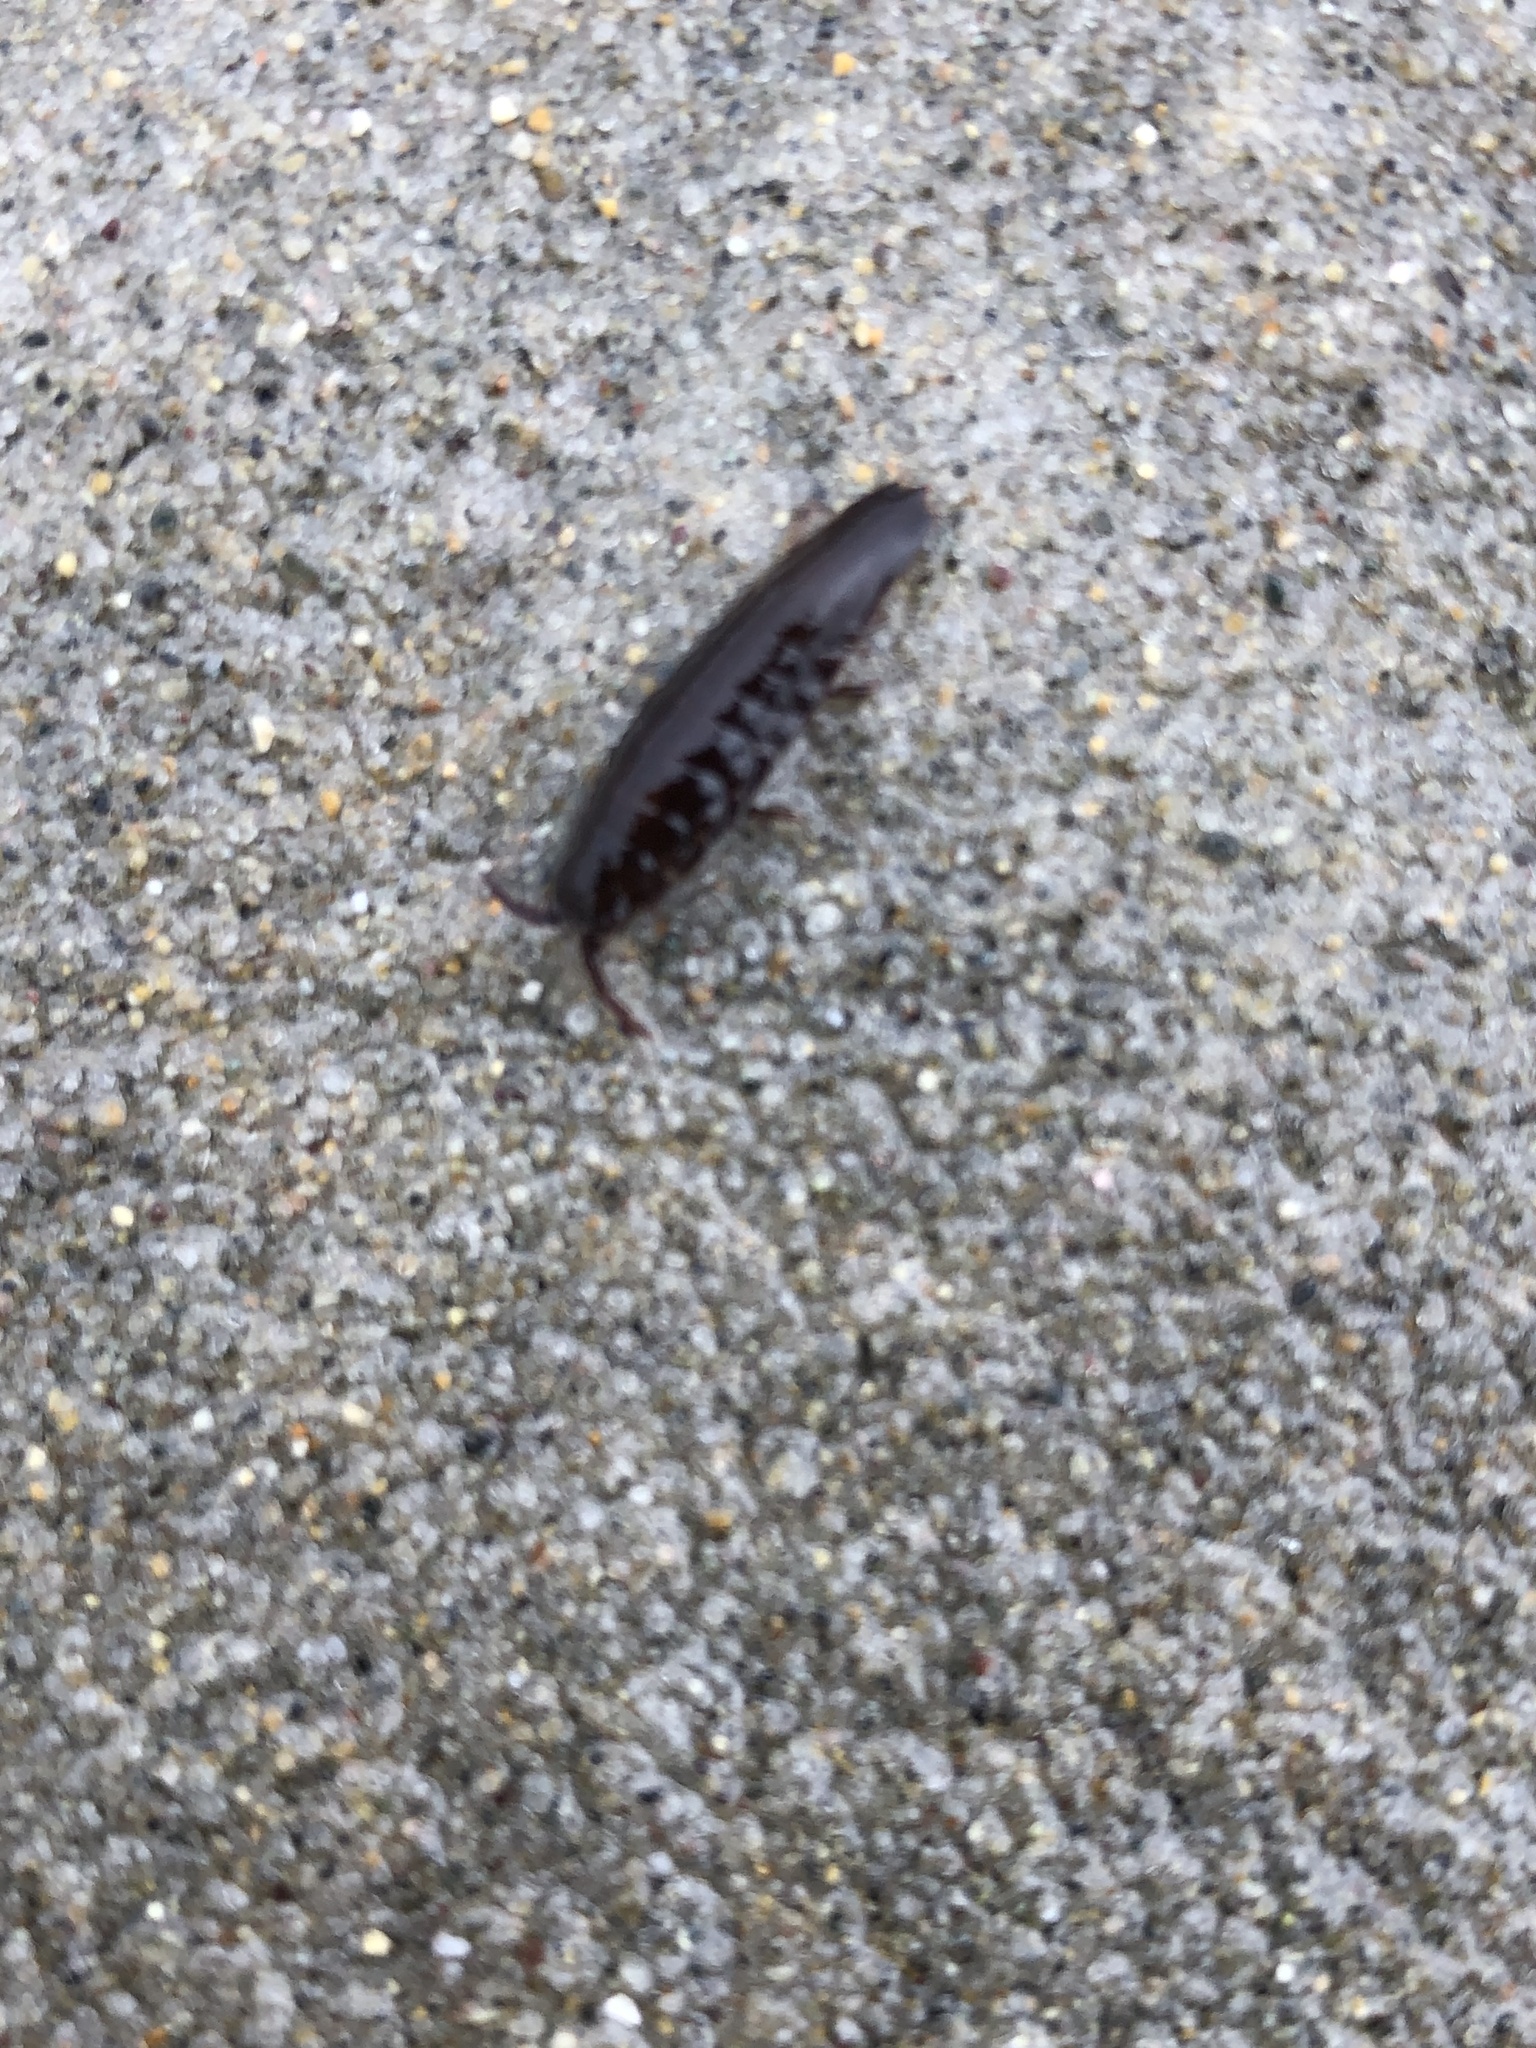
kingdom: Animalia
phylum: Arthropoda
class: Malacostraca
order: Isopoda
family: Idoteidae
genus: Idotea
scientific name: Idotea balthica
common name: Baltic isopod
